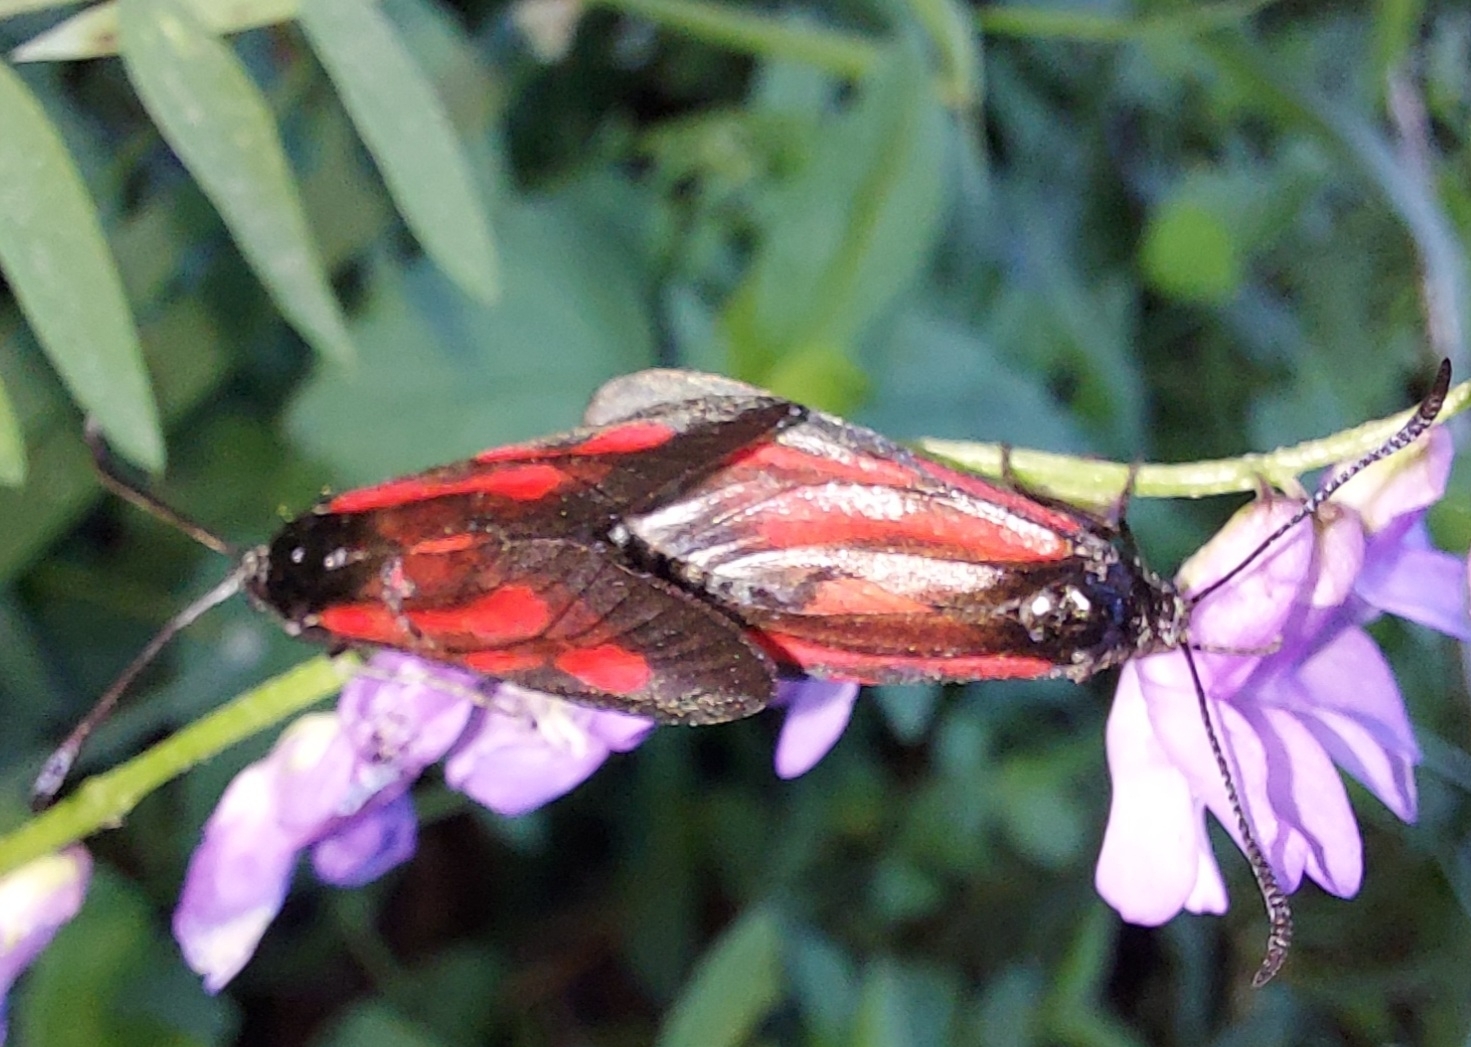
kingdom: Animalia
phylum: Arthropoda
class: Insecta
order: Lepidoptera
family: Zygaenidae
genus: Zygaena
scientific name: Zygaena osterodensis
